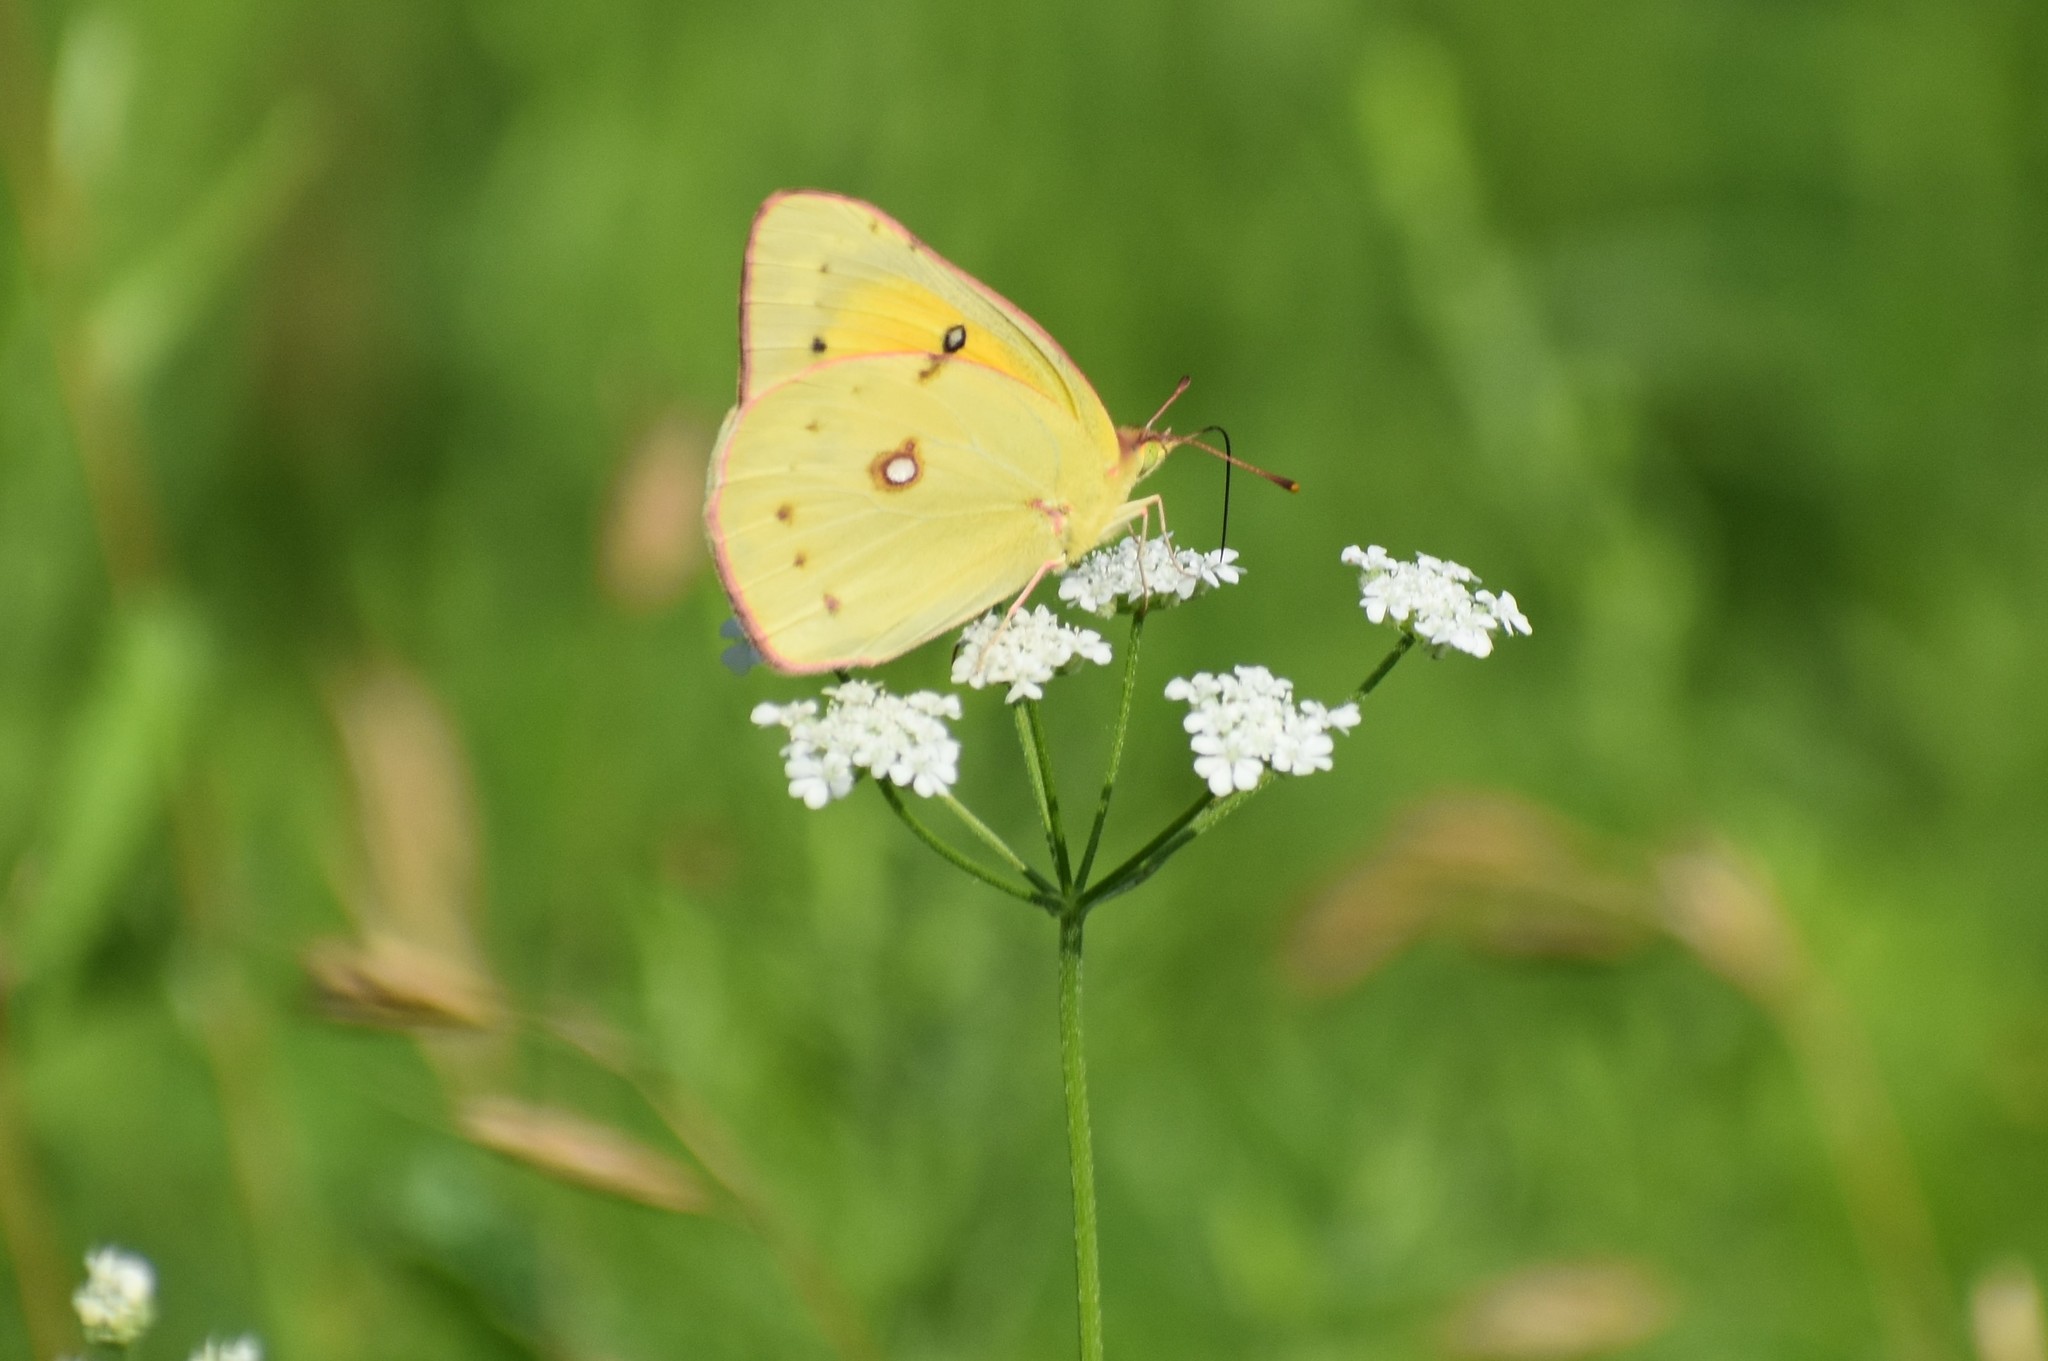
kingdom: Animalia
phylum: Arthropoda
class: Insecta
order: Lepidoptera
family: Pieridae
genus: Colias
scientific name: Colias eurytheme
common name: Alfalfa butterfly
